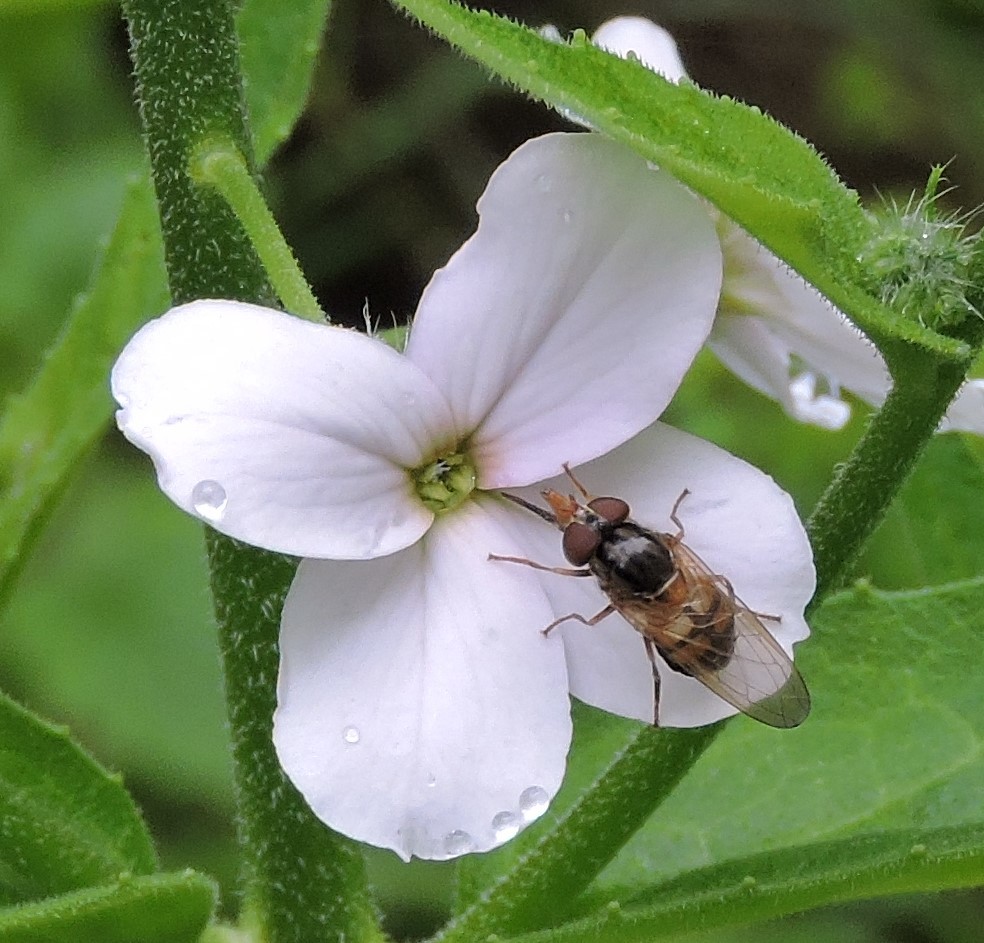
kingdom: Plantae
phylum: Tracheophyta
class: Magnoliopsida
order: Brassicales
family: Brassicaceae
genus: Hesperis
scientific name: Hesperis matronalis
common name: Dame's-violet
